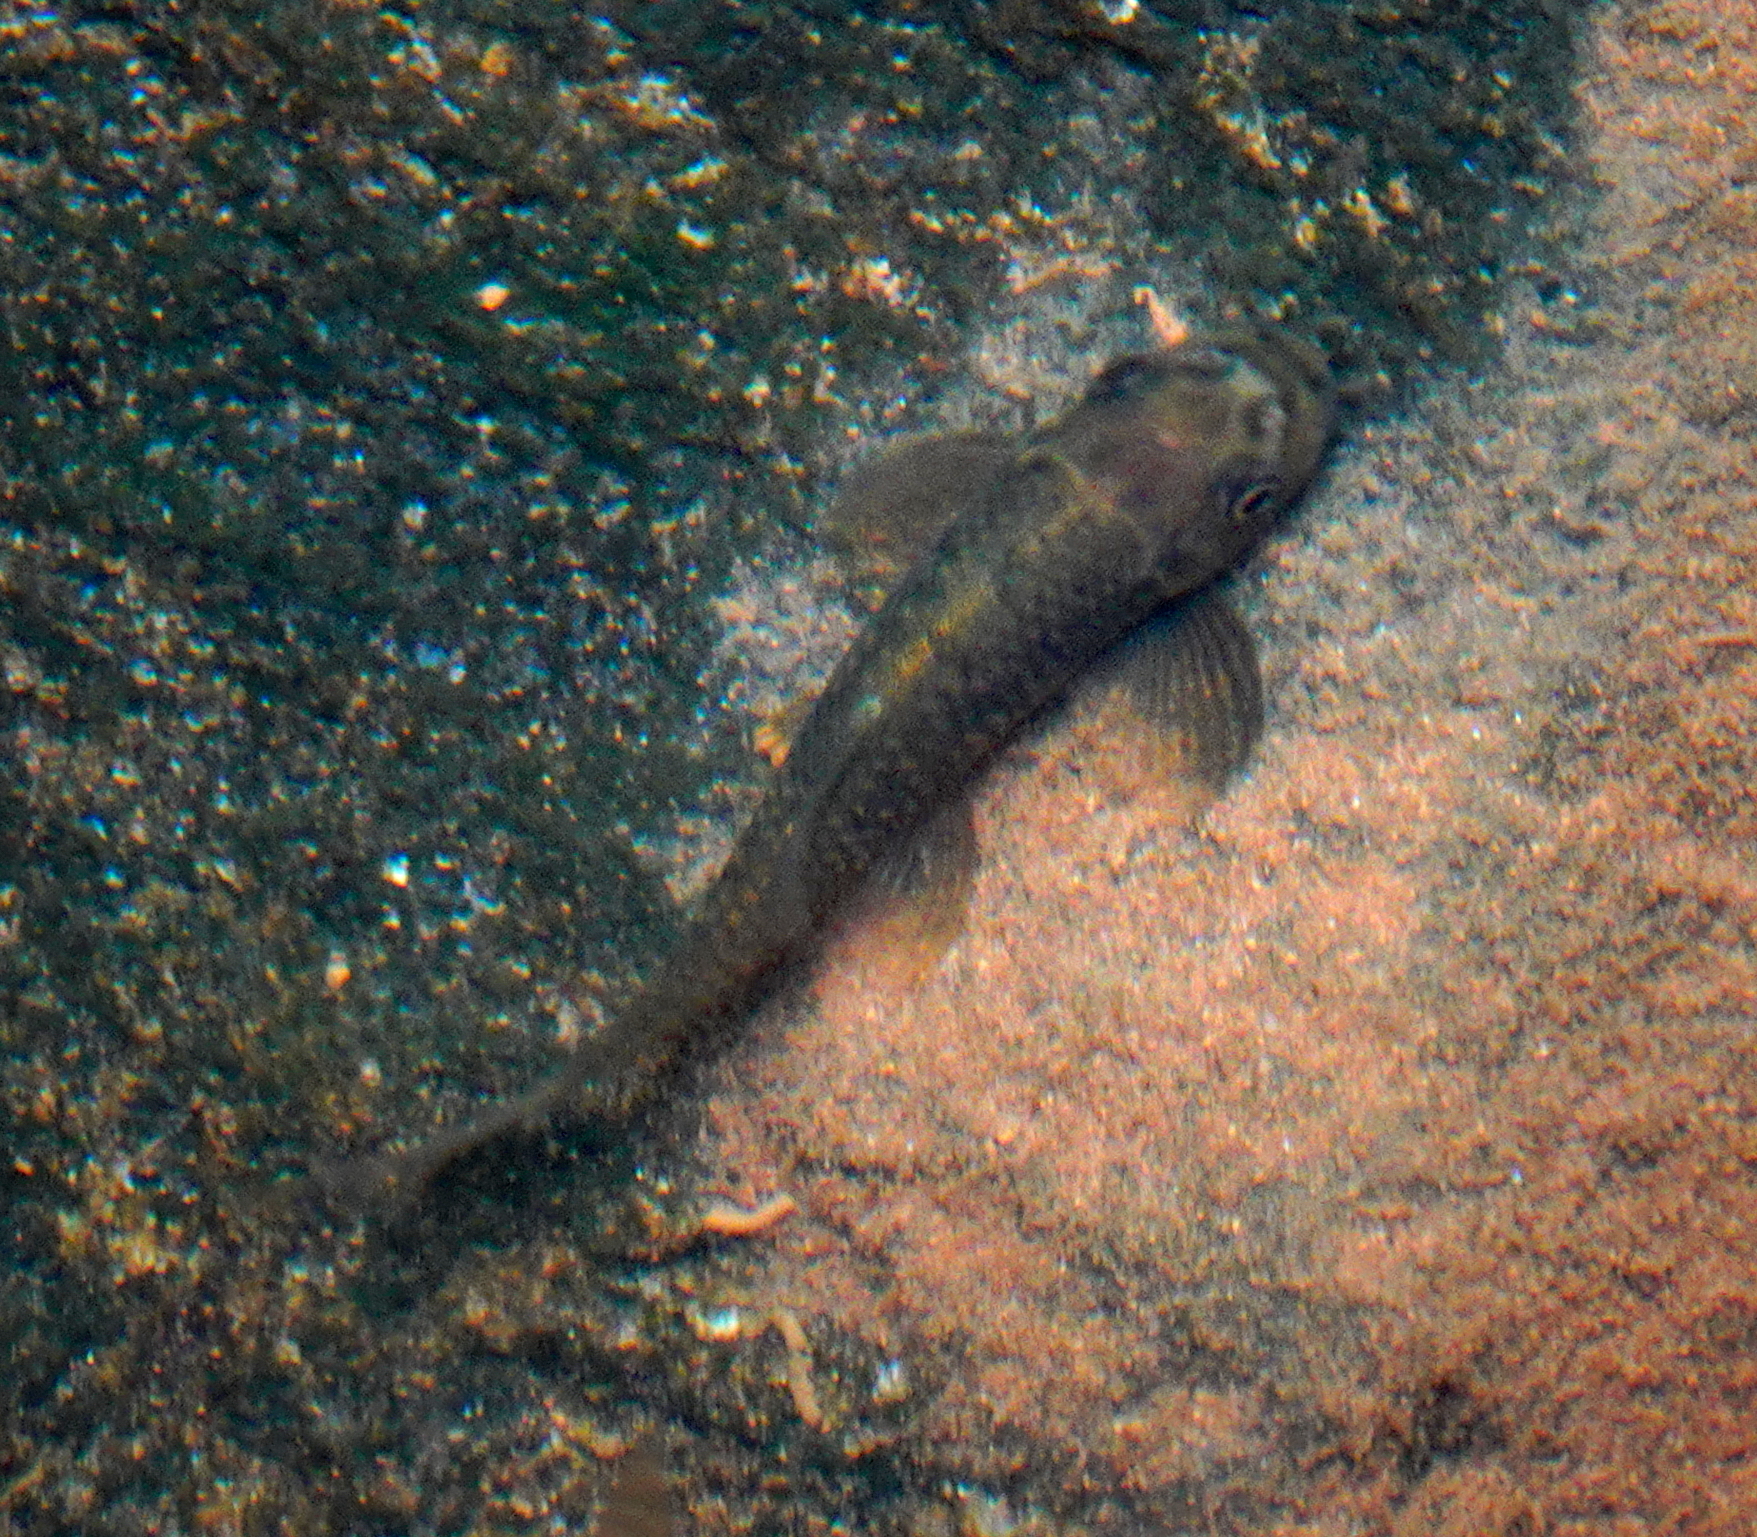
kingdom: Animalia
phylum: Chordata
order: Cypriniformes
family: Cyprinidae
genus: Garra
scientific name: Garra ceylonensis
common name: Stone sucker
